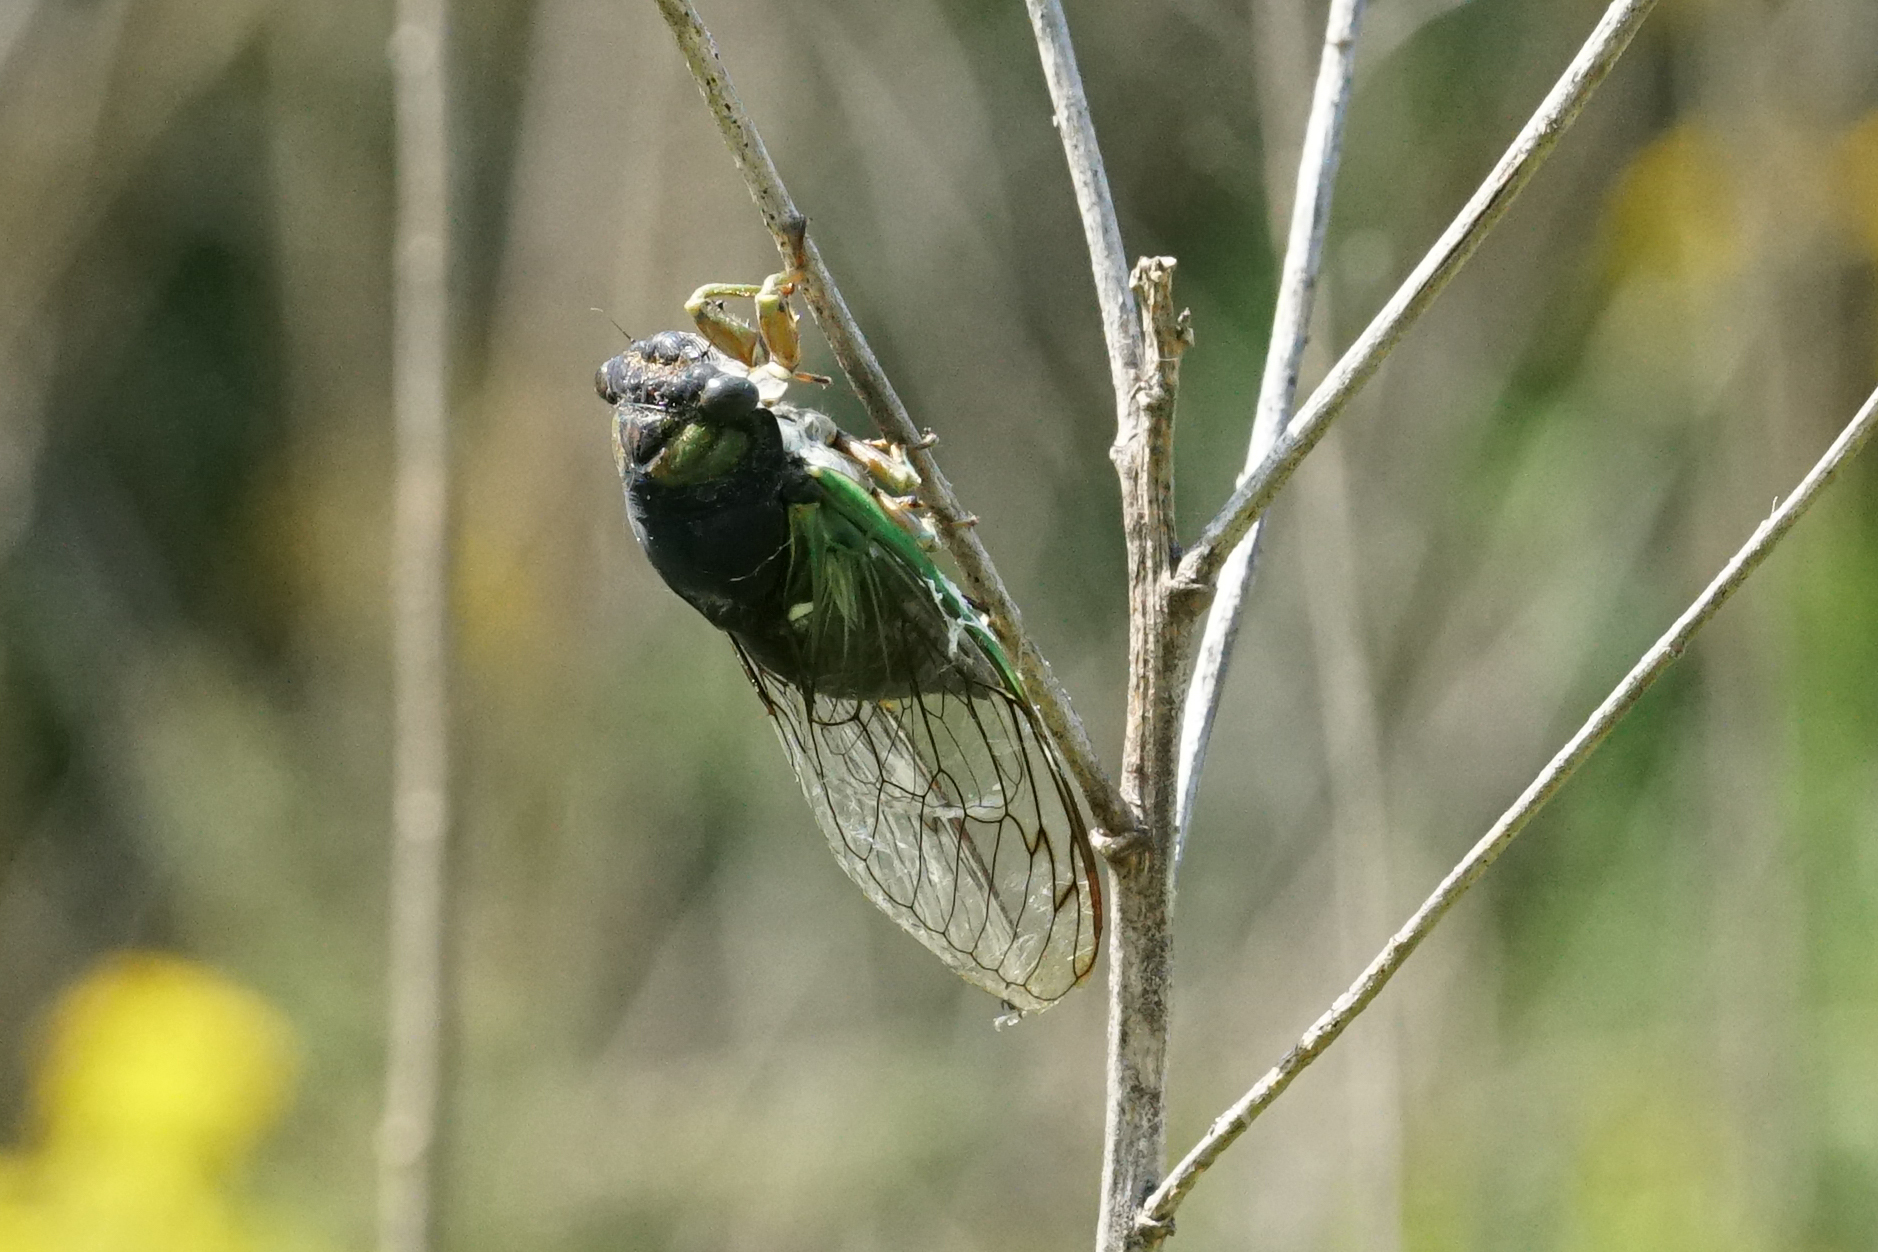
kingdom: Animalia
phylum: Arthropoda
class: Insecta
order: Hemiptera
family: Cicadidae
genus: Neotibicen
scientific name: Neotibicen tibicen
